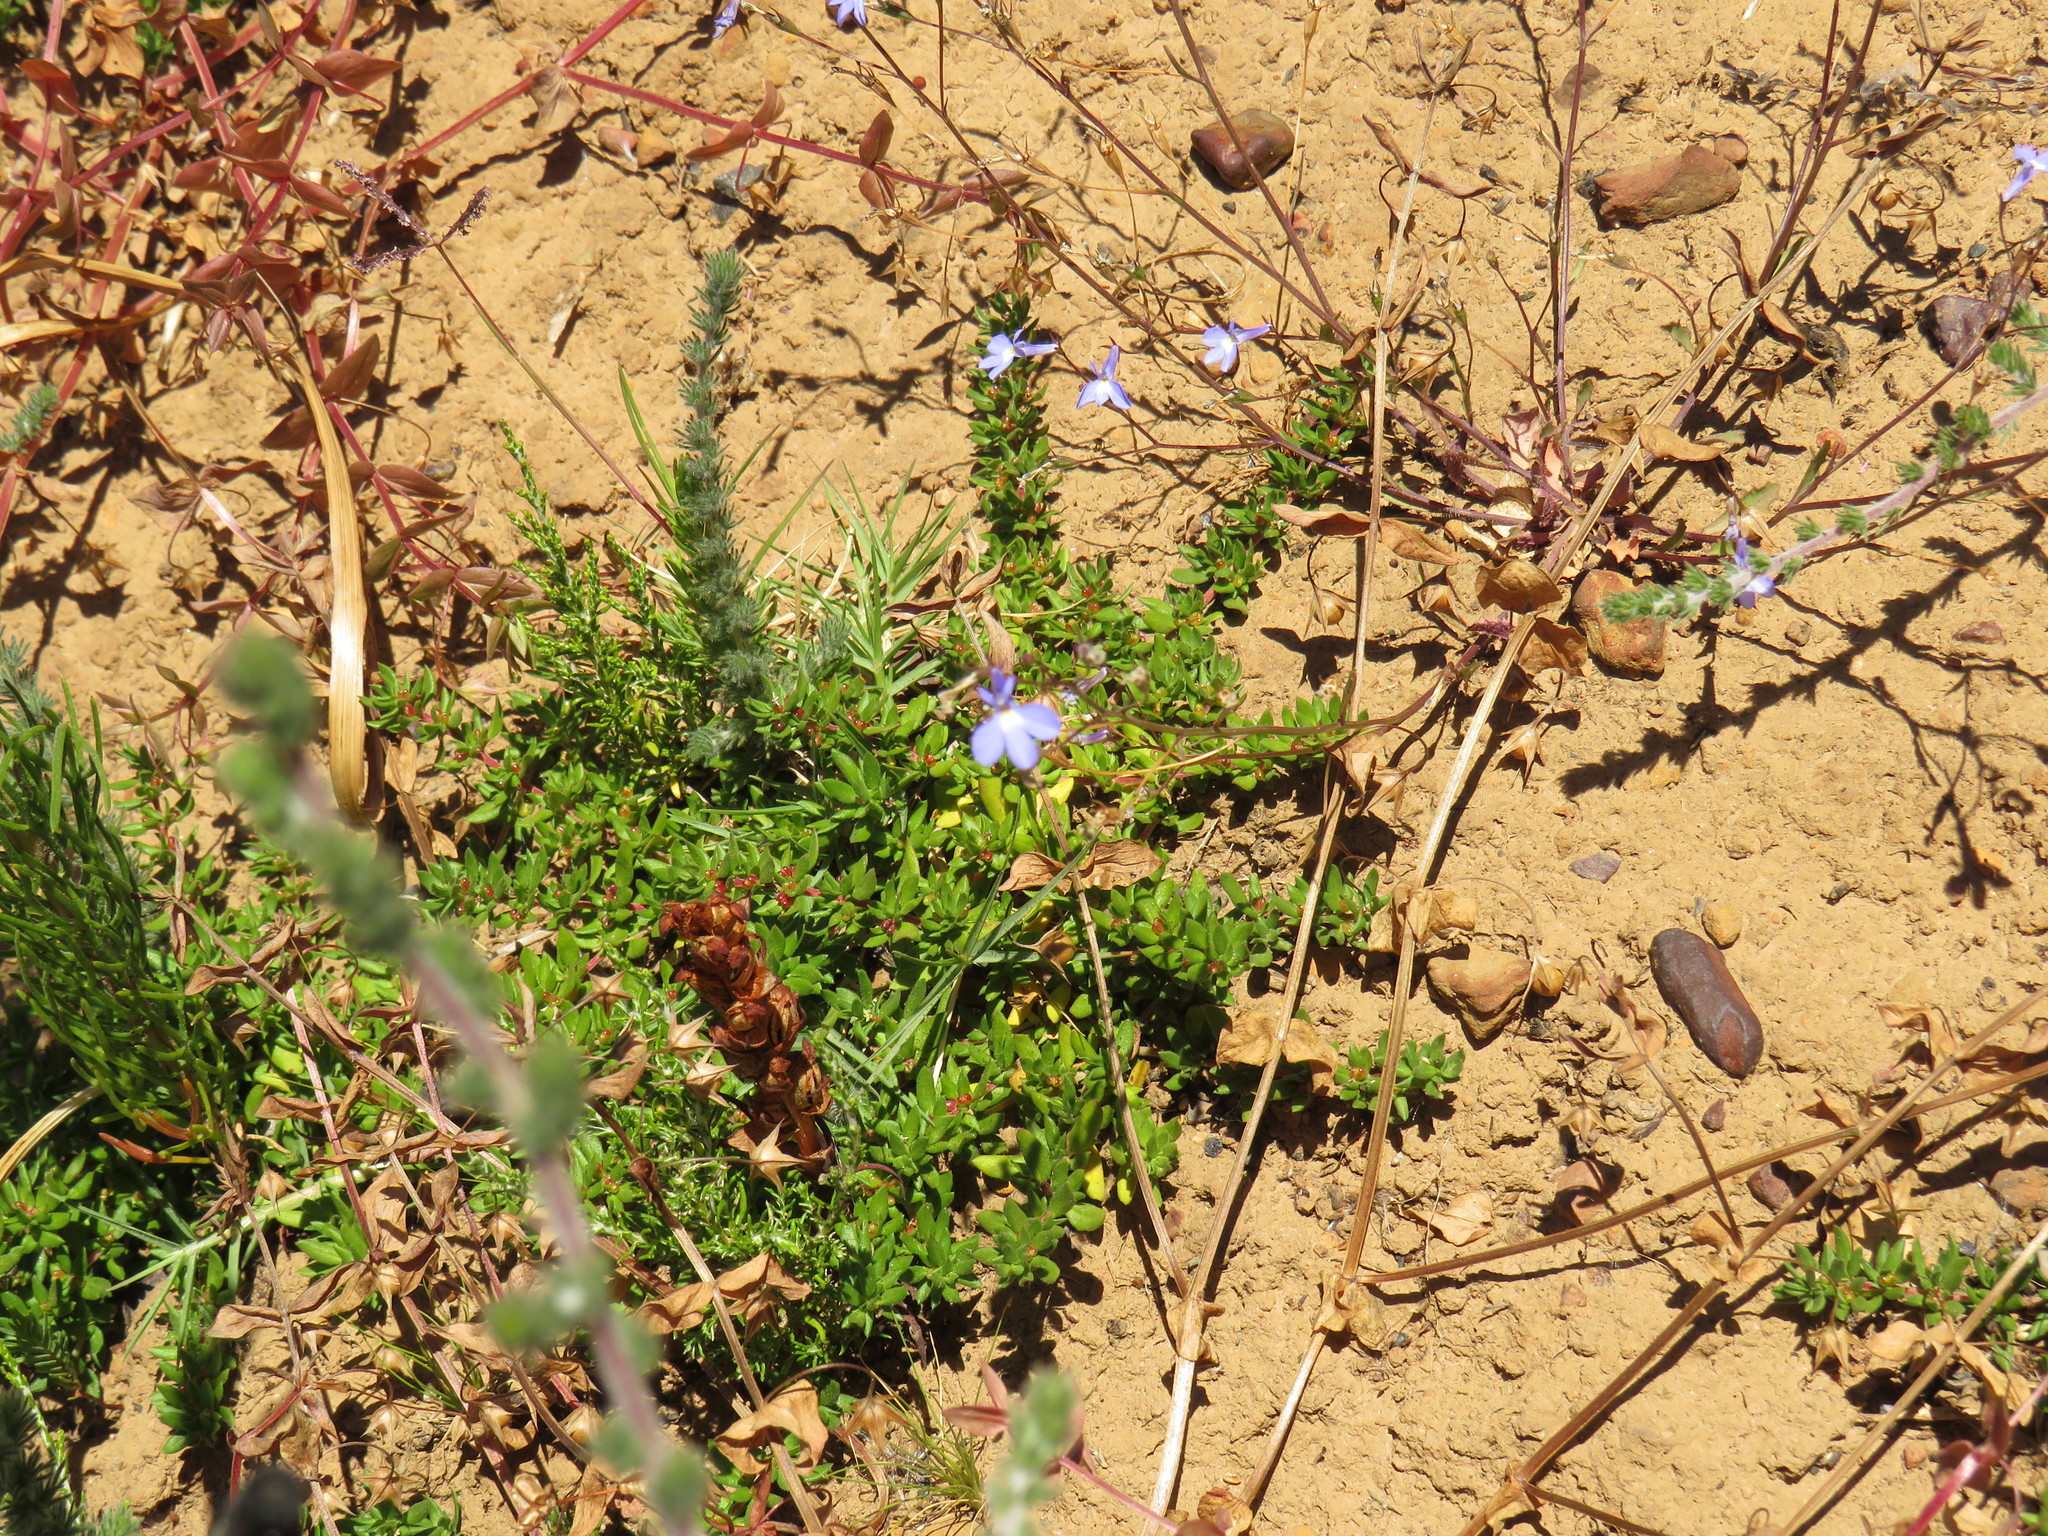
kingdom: Plantae
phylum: Tracheophyta
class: Liliopsida
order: Asparagales
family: Orchidaceae
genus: Disa
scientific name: Disa bracteata
